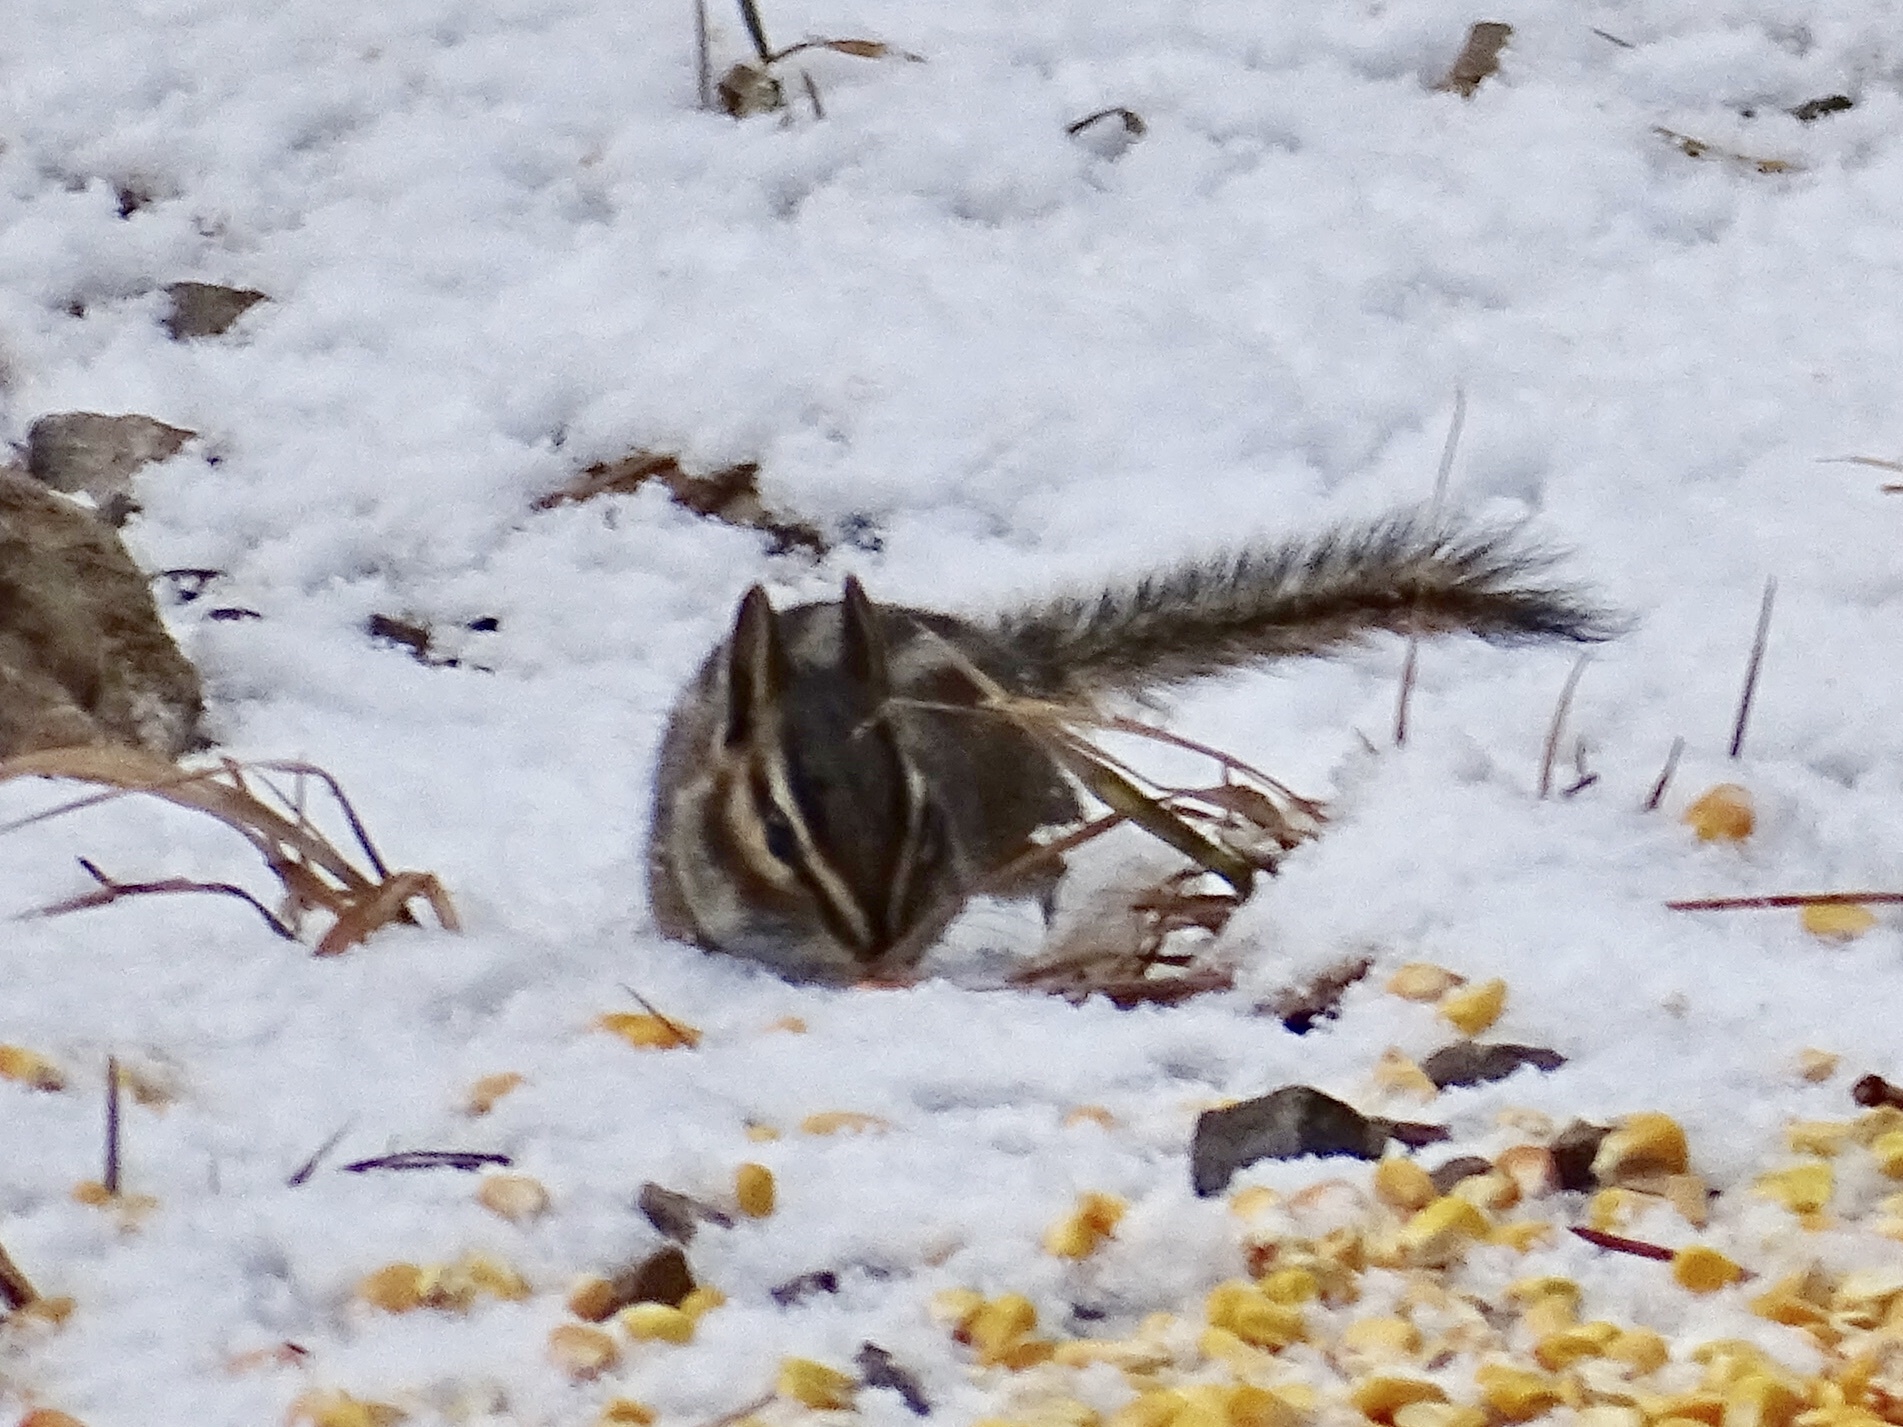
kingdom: Animalia
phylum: Chordata
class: Mammalia
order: Rodentia
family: Sciuridae
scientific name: Sciuridae
